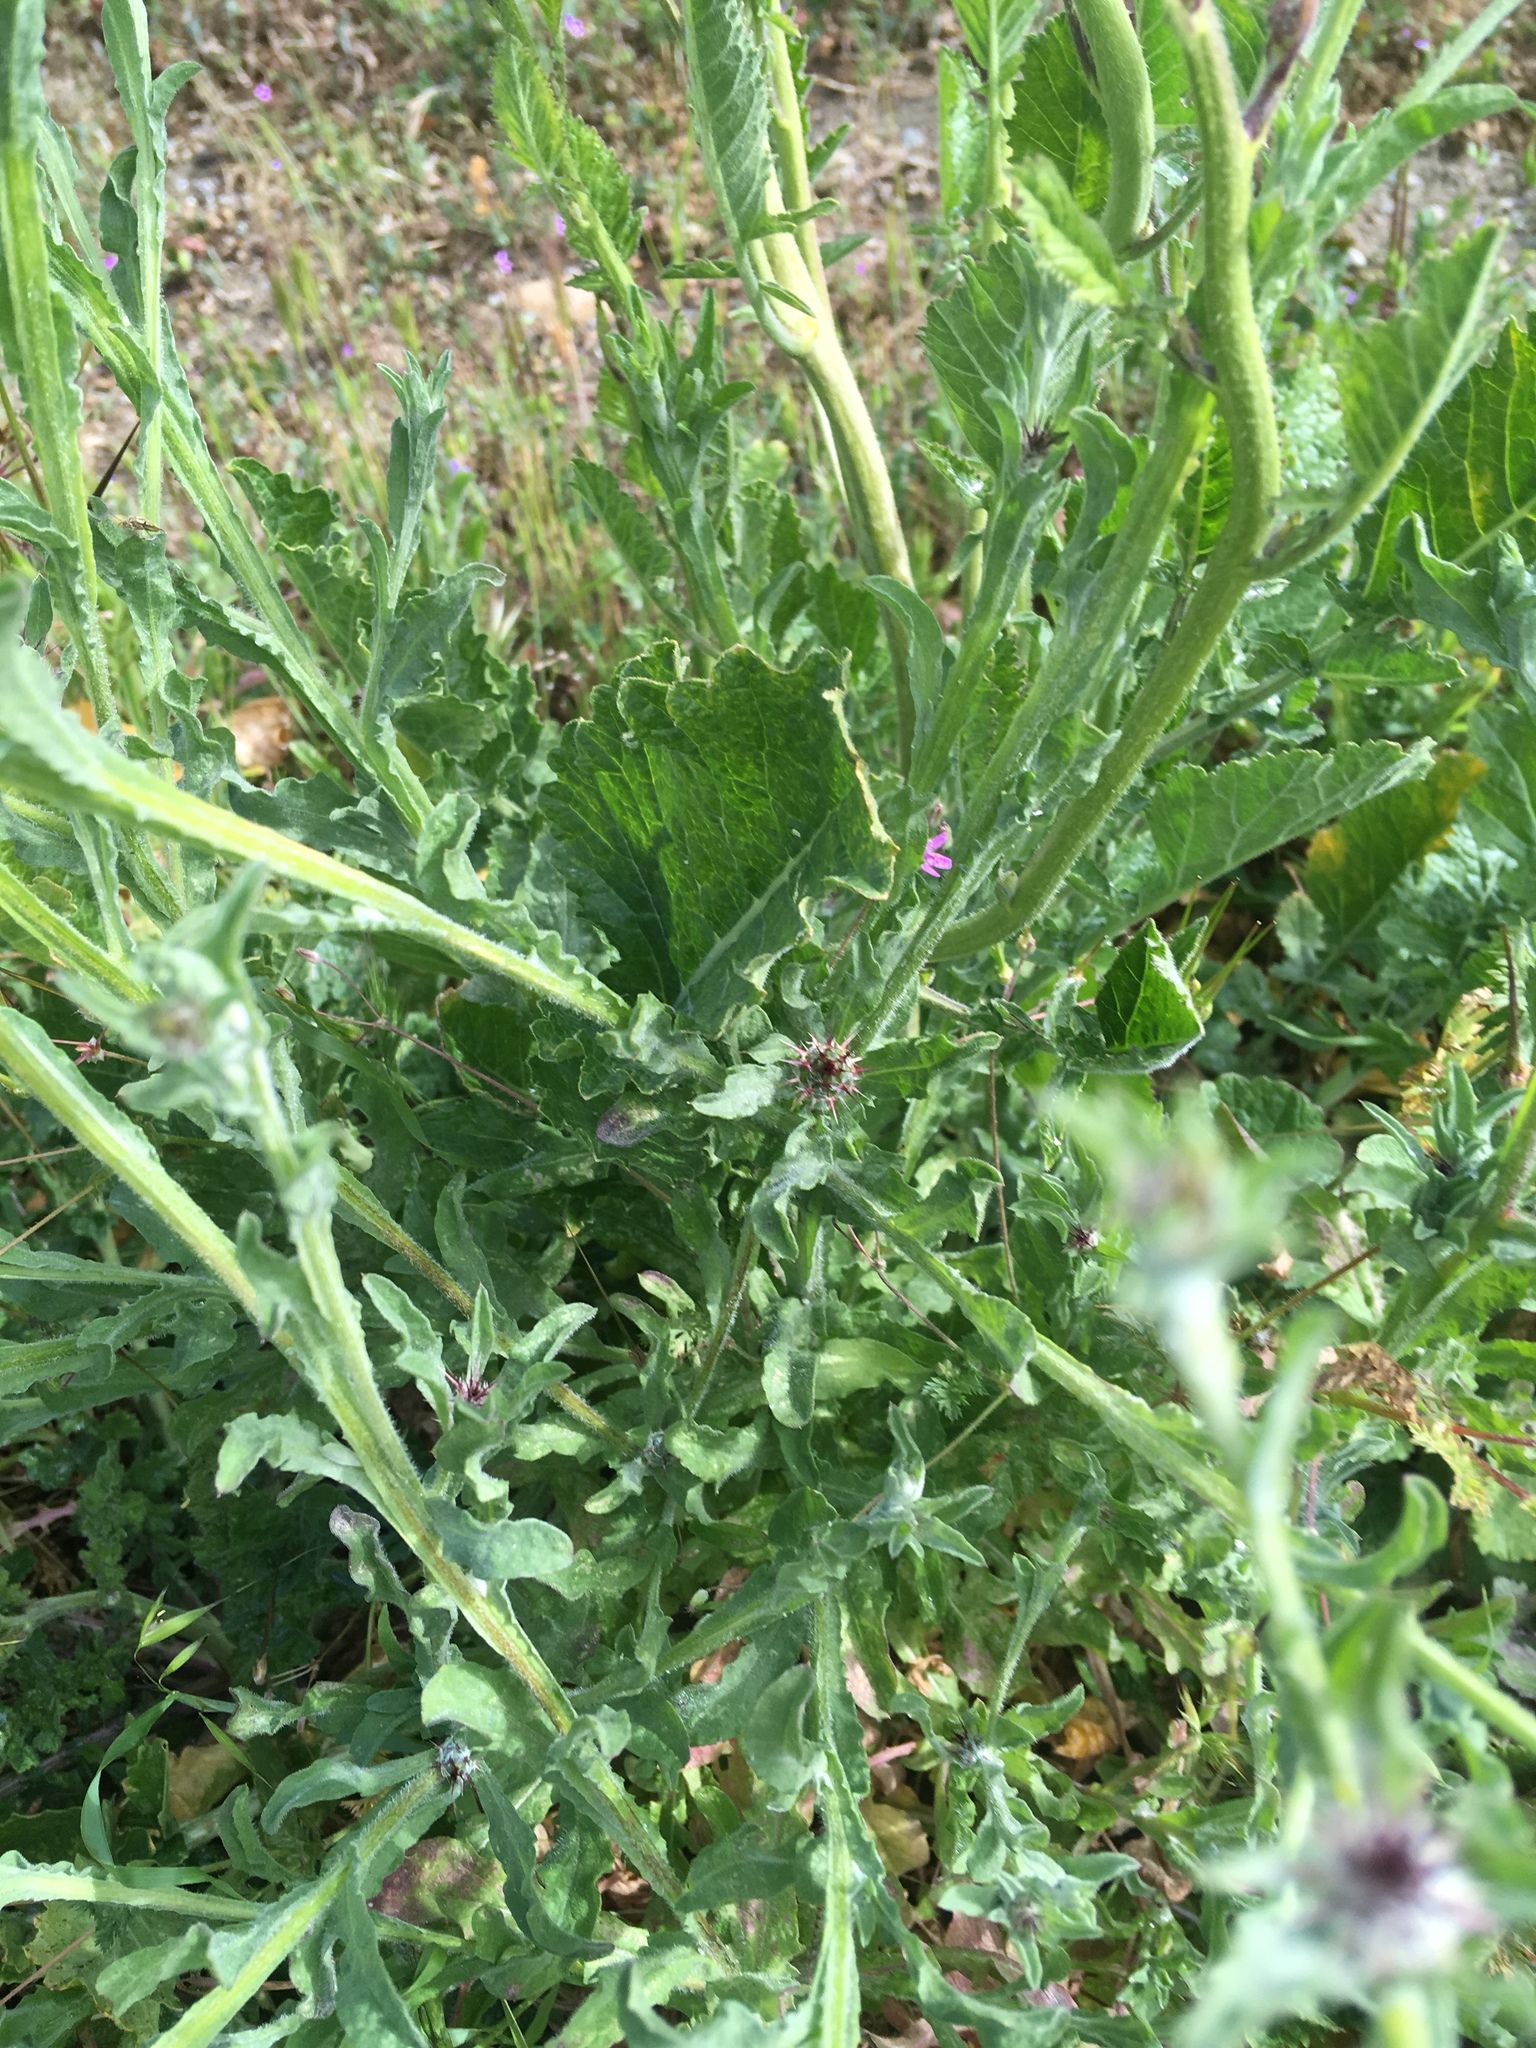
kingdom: Plantae
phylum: Tracheophyta
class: Magnoliopsida
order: Asterales
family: Asteraceae
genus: Centaurea
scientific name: Centaurea melitensis
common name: Maltese star-thistle
